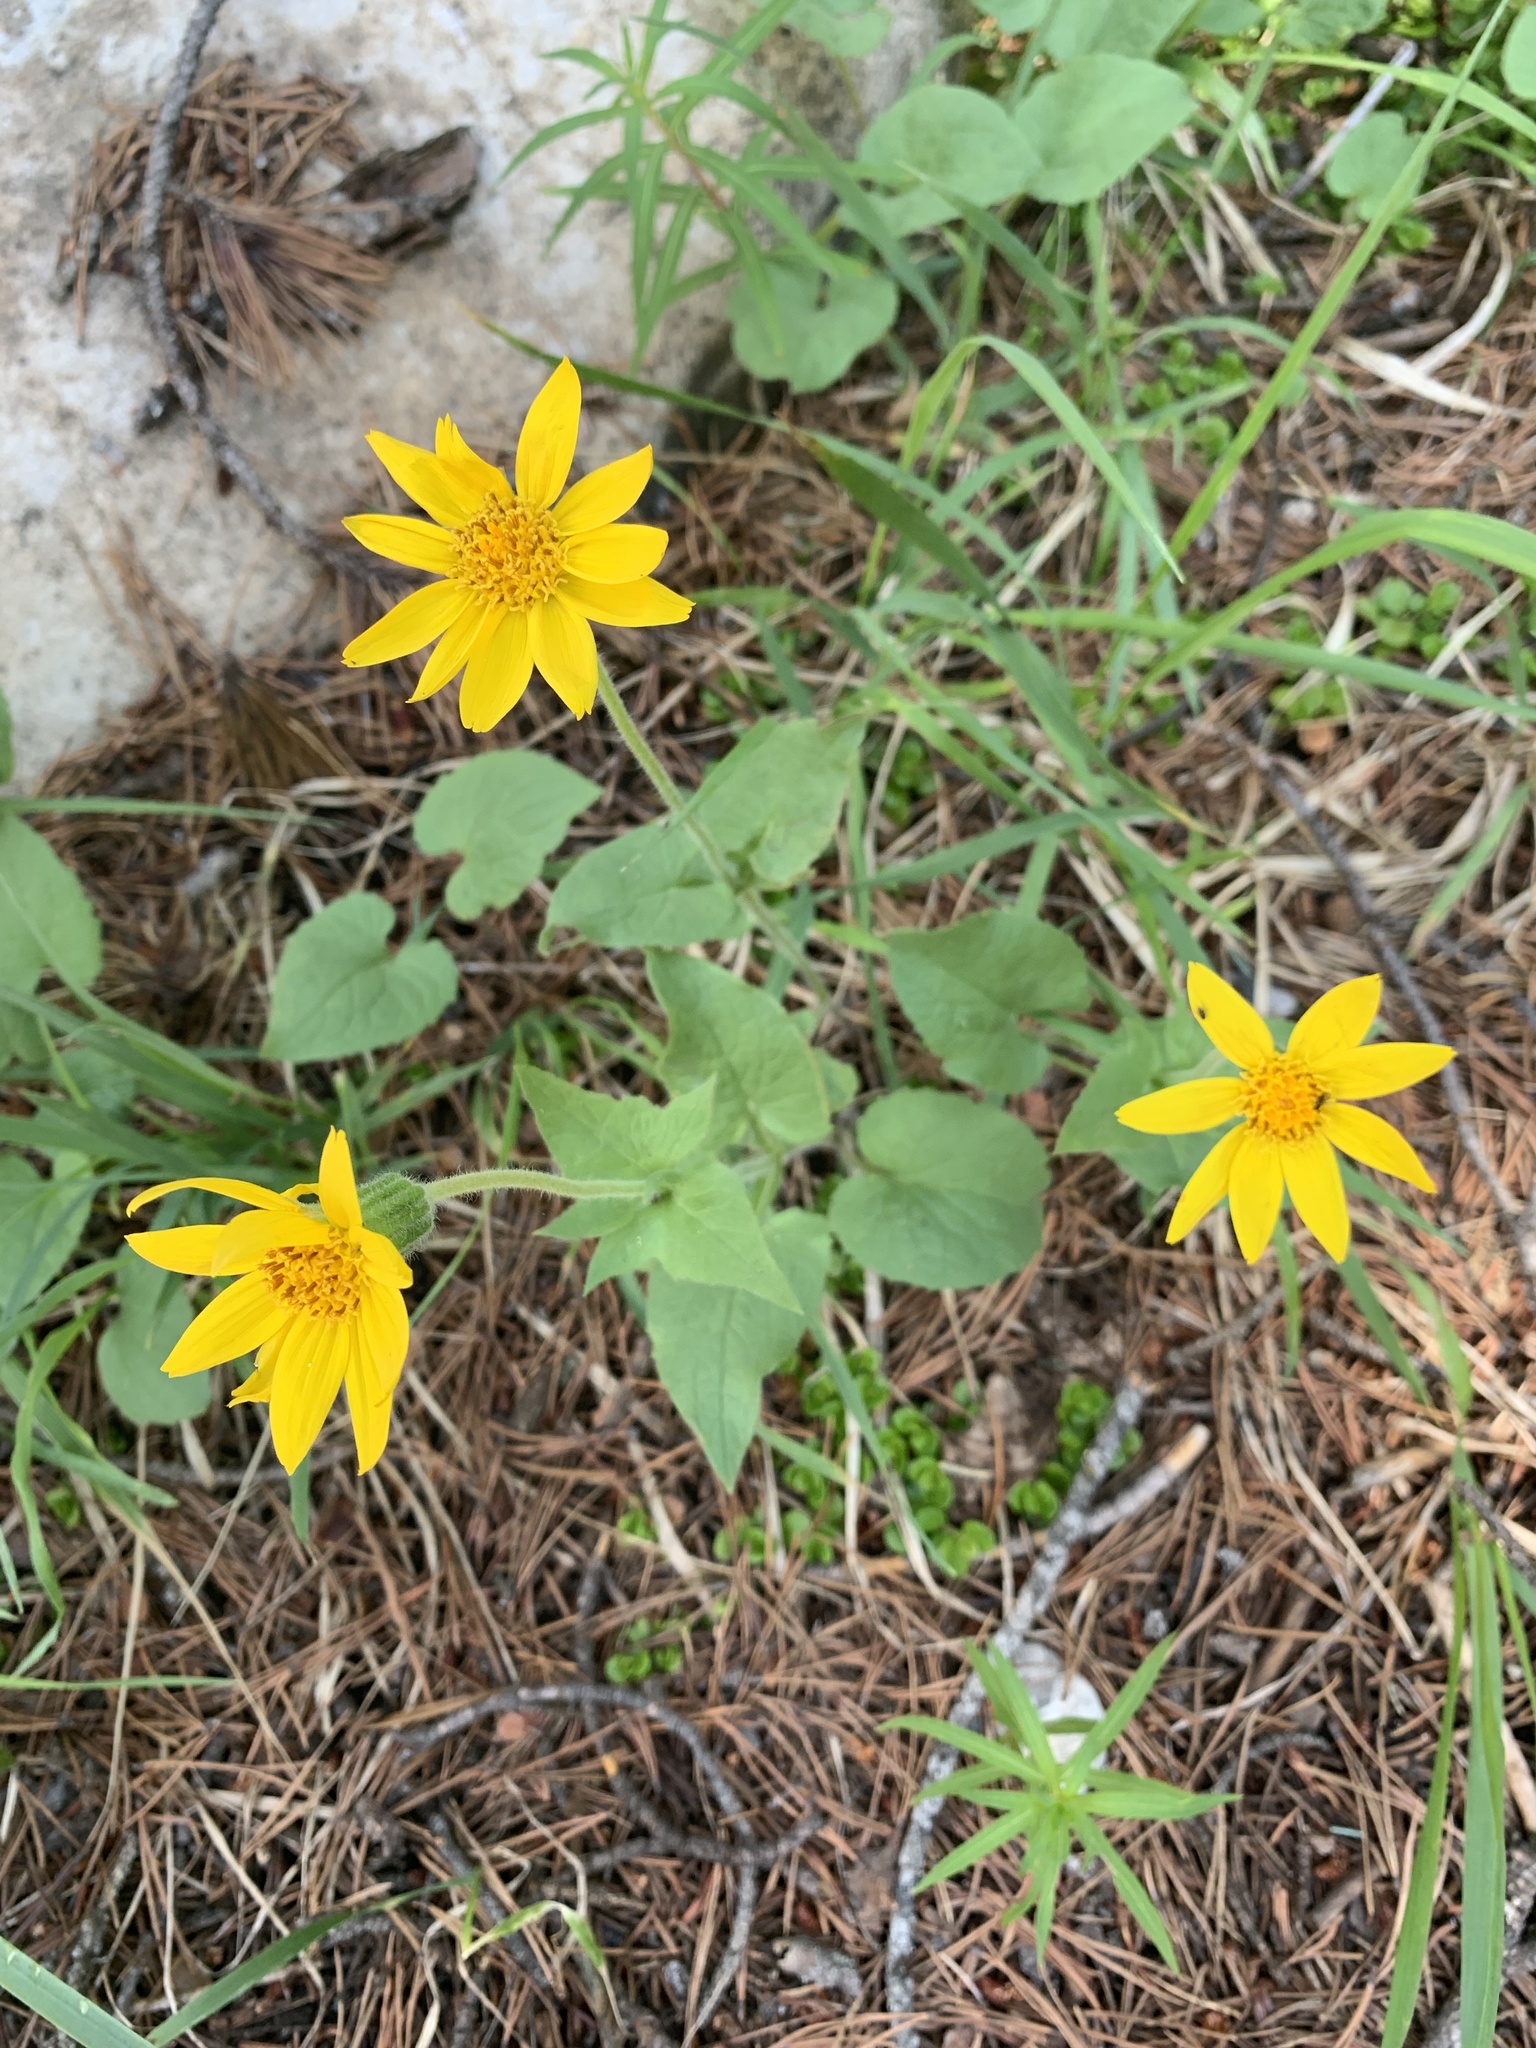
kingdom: Plantae
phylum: Tracheophyta
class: Magnoliopsida
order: Asterales
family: Asteraceae
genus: Arnica
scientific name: Arnica cordifolia
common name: Heart-leaf arnica
